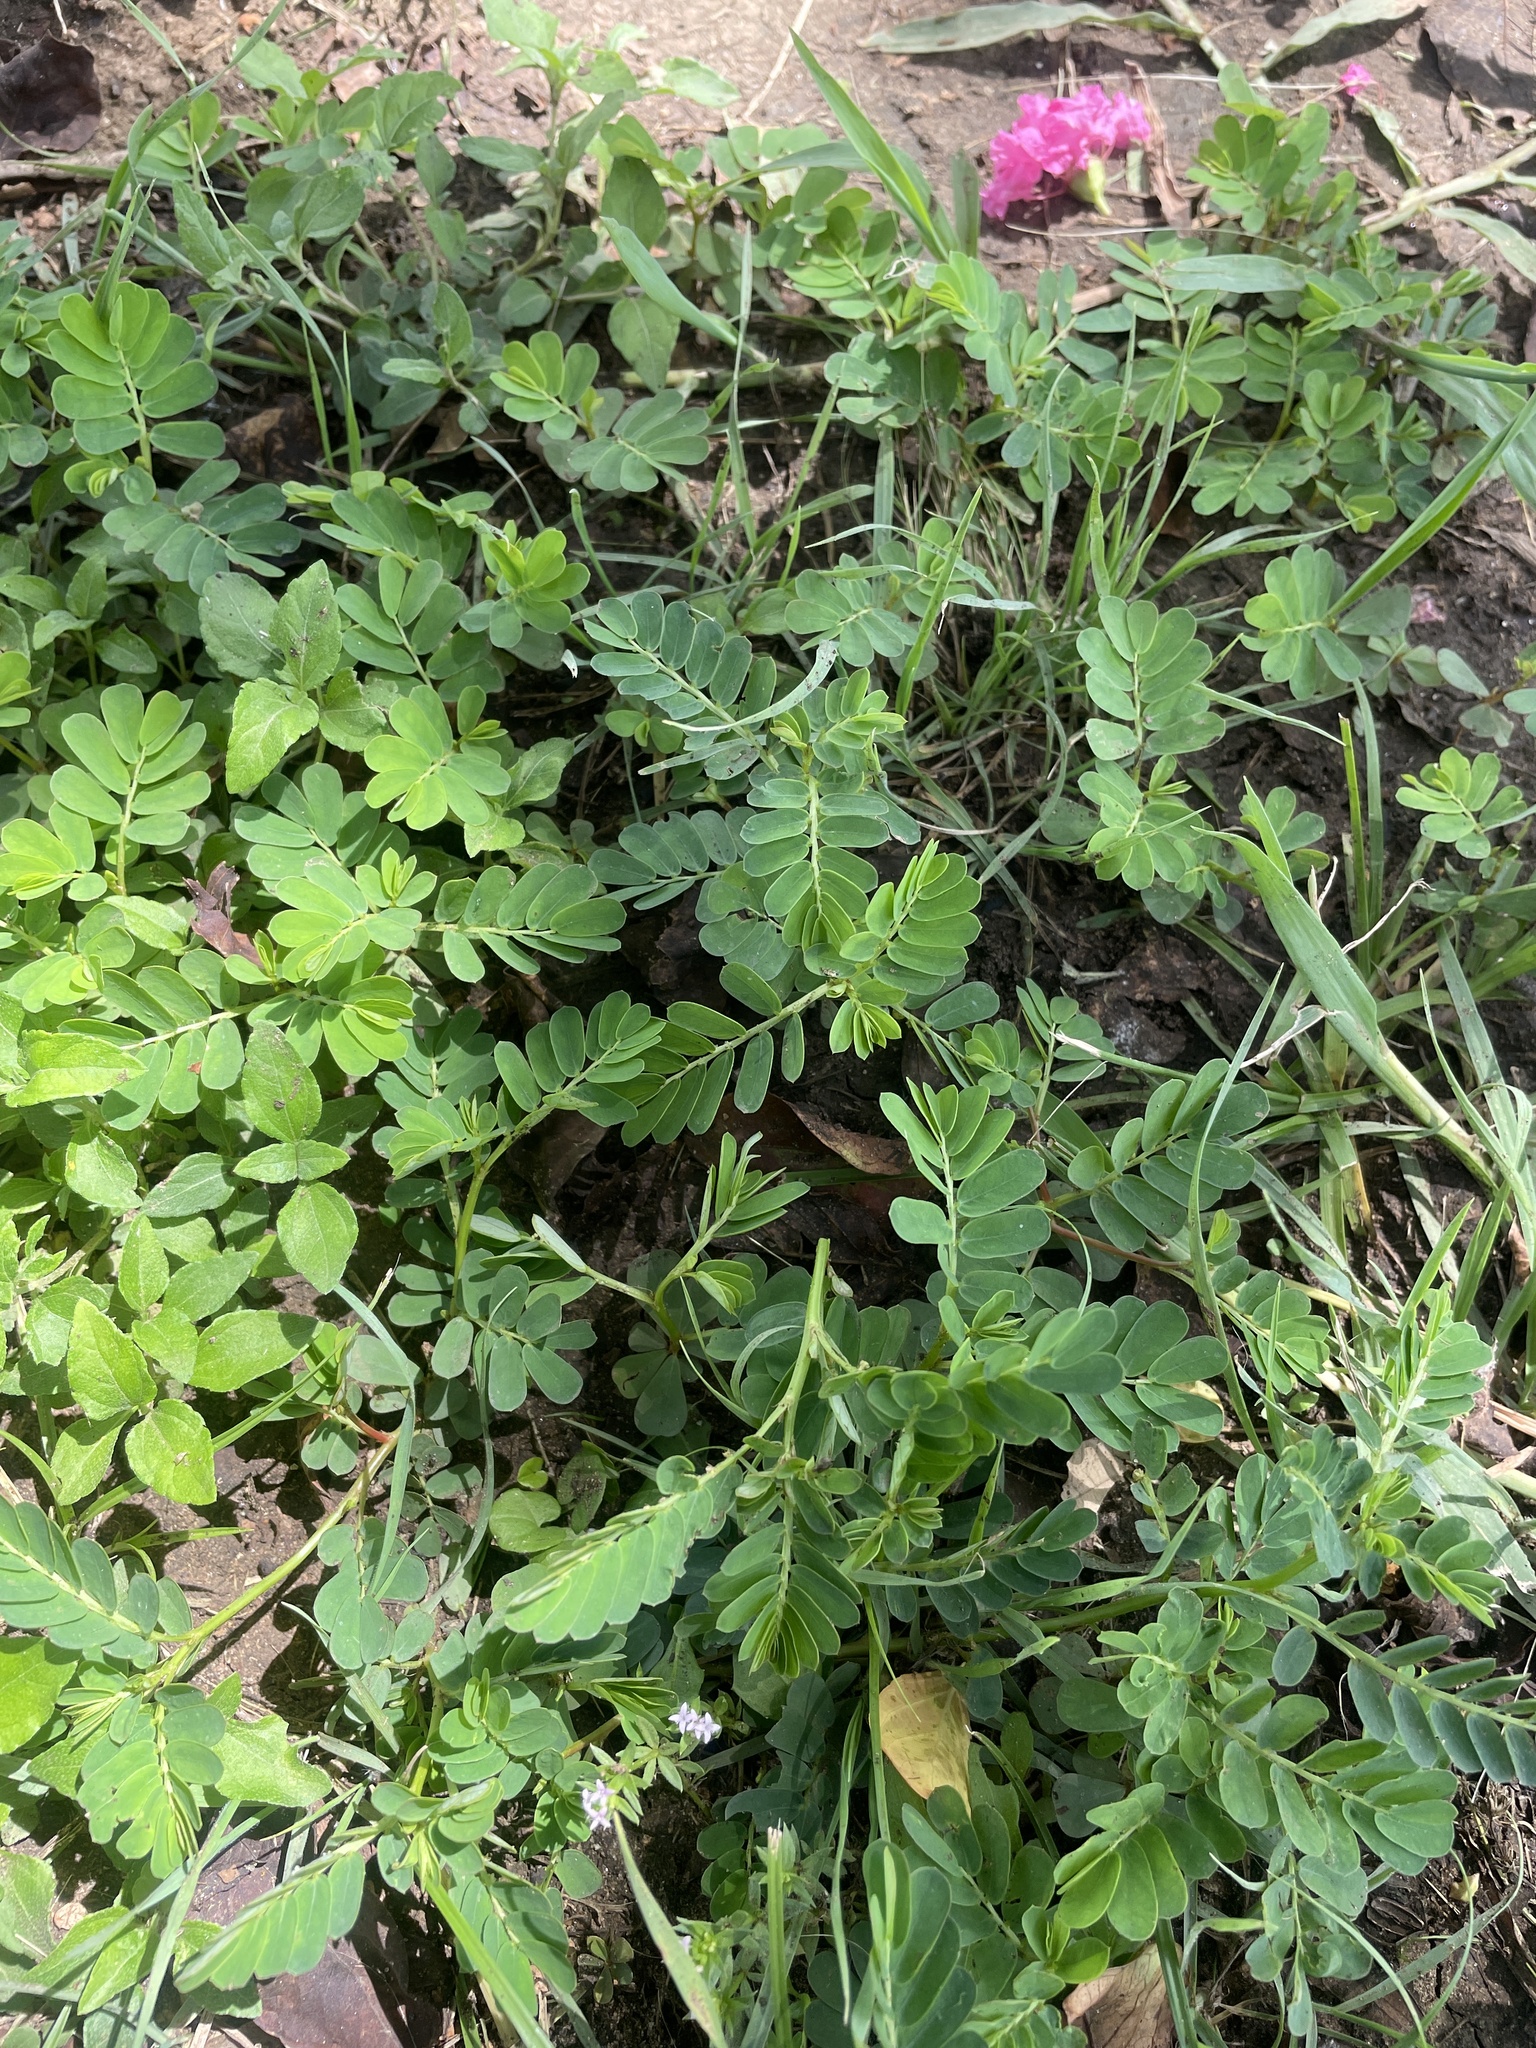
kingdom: Plantae
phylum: Tracheophyta
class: Magnoliopsida
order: Malpighiales
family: Phyllanthaceae
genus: Phyllanthus
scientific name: Phyllanthus urinaria
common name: Chamber bitter
